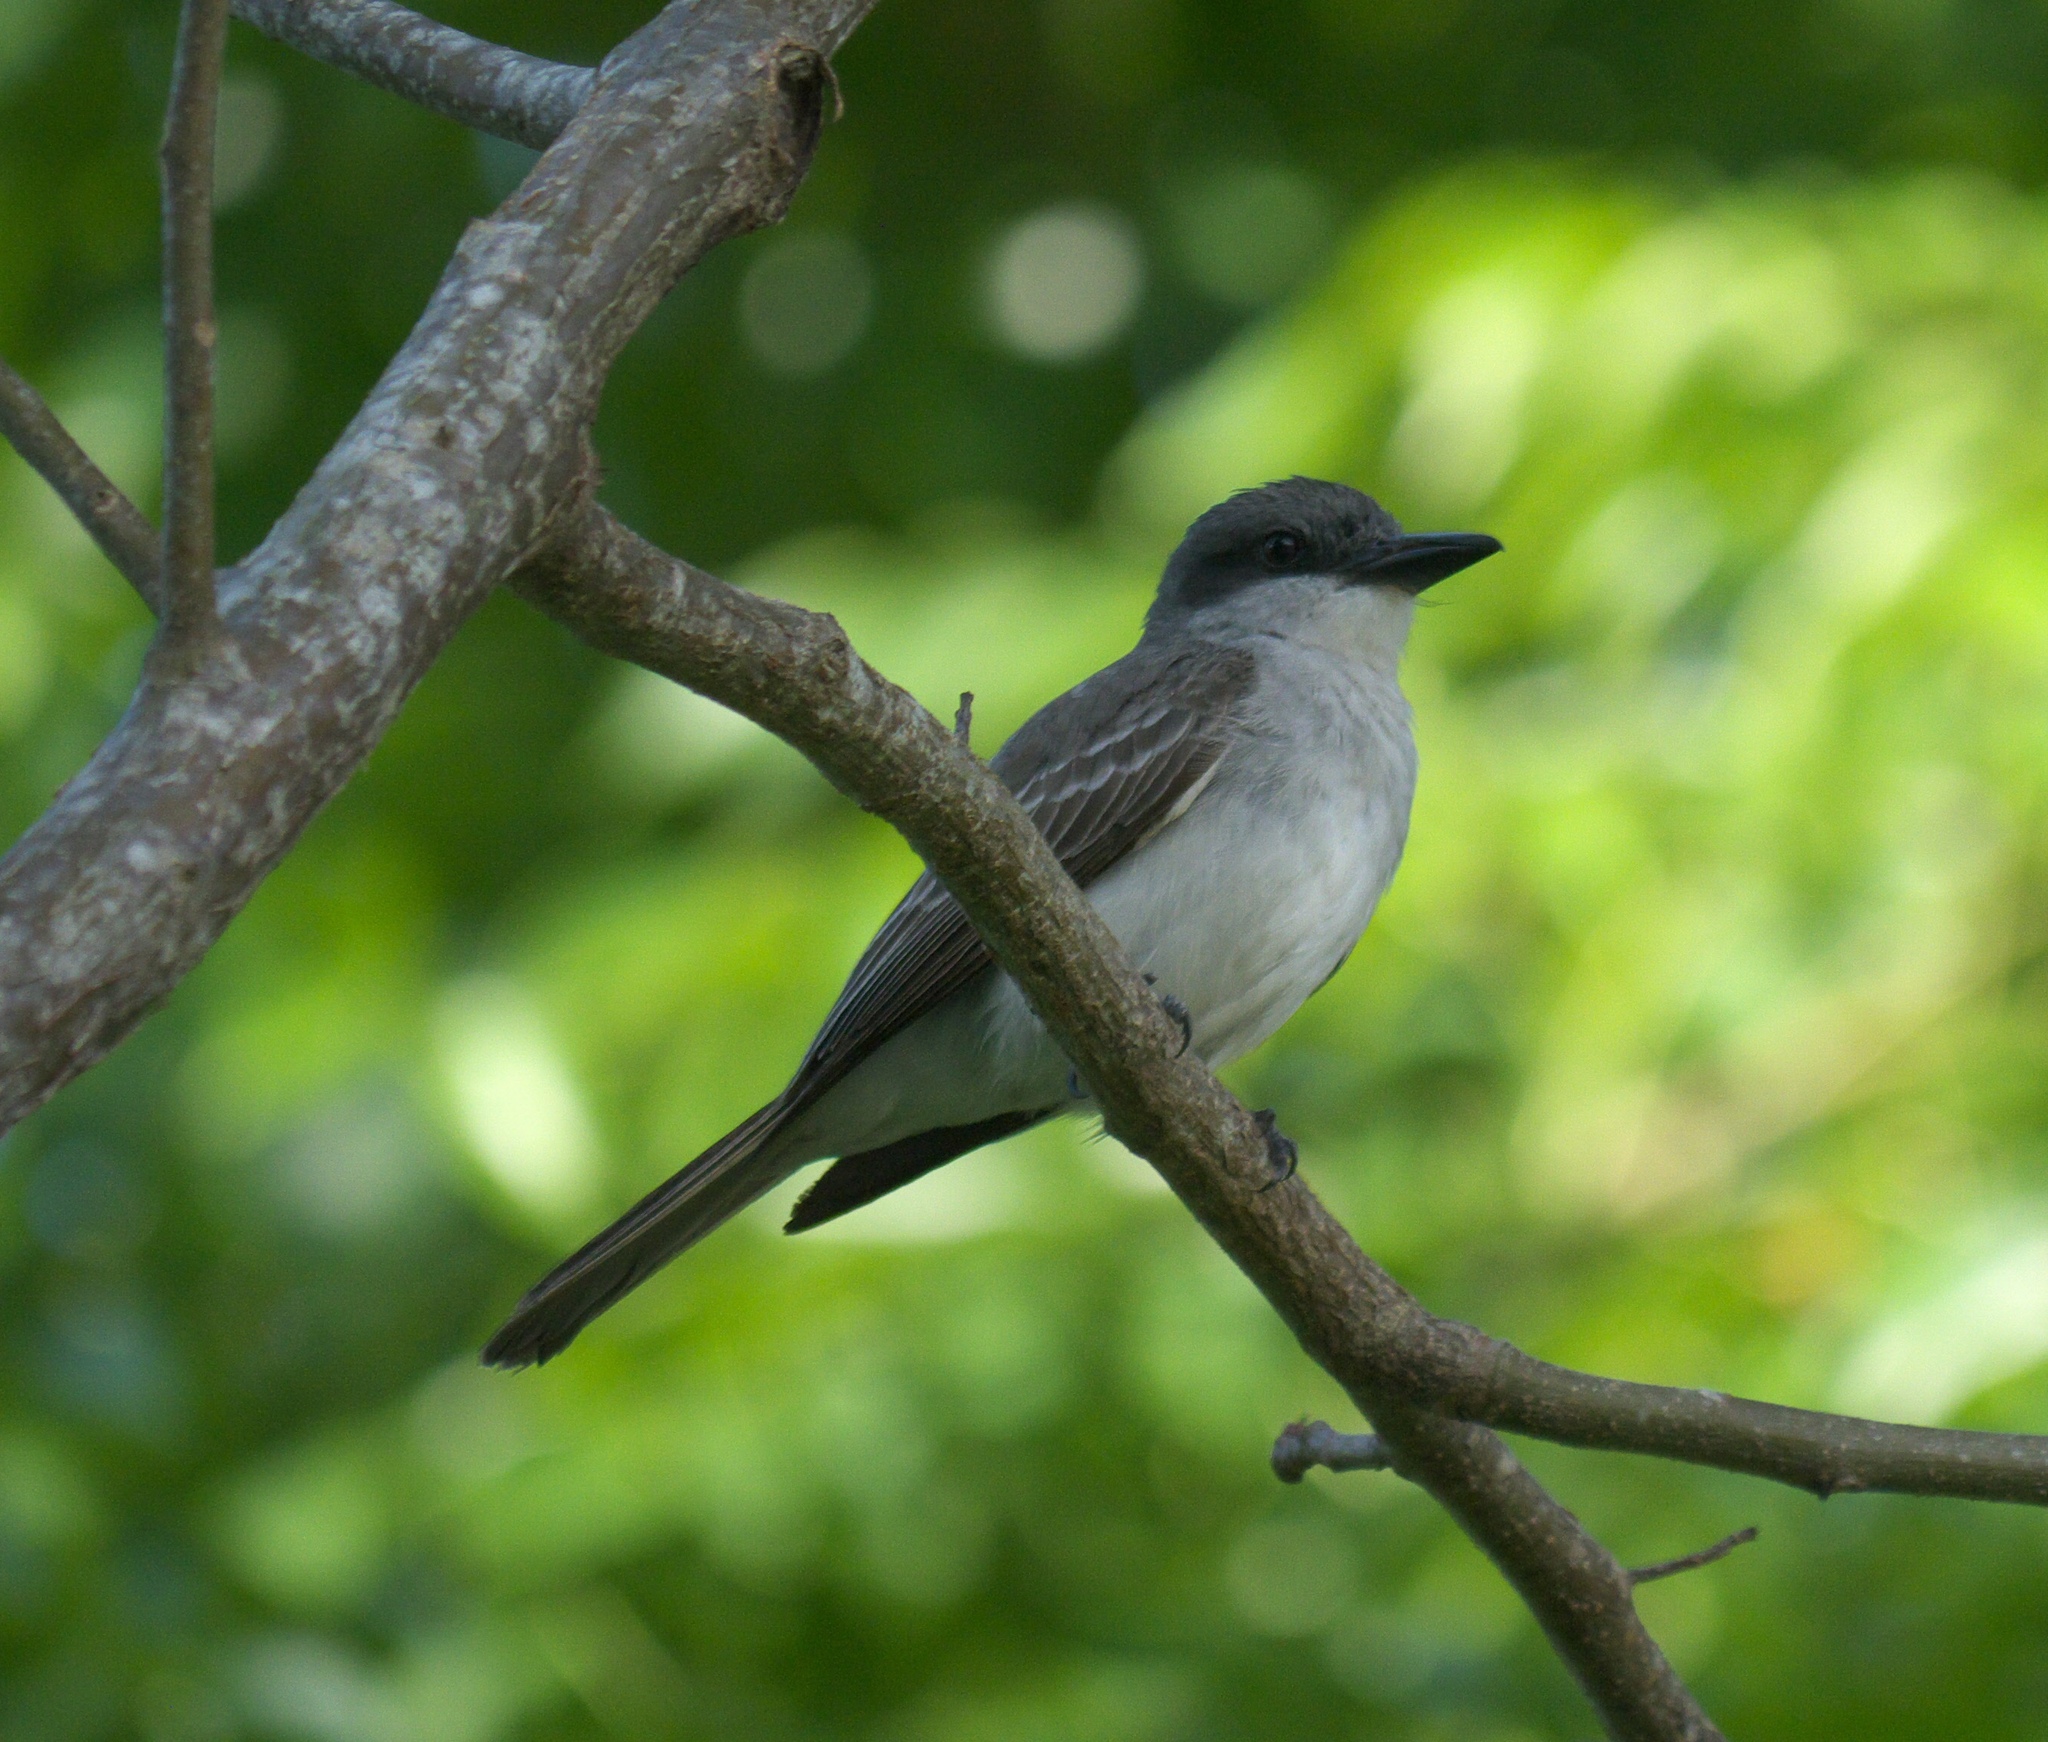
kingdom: Animalia
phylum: Chordata
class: Aves
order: Passeriformes
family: Tyrannidae
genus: Tyrannus
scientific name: Tyrannus dominicensis
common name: Gray kingbird
